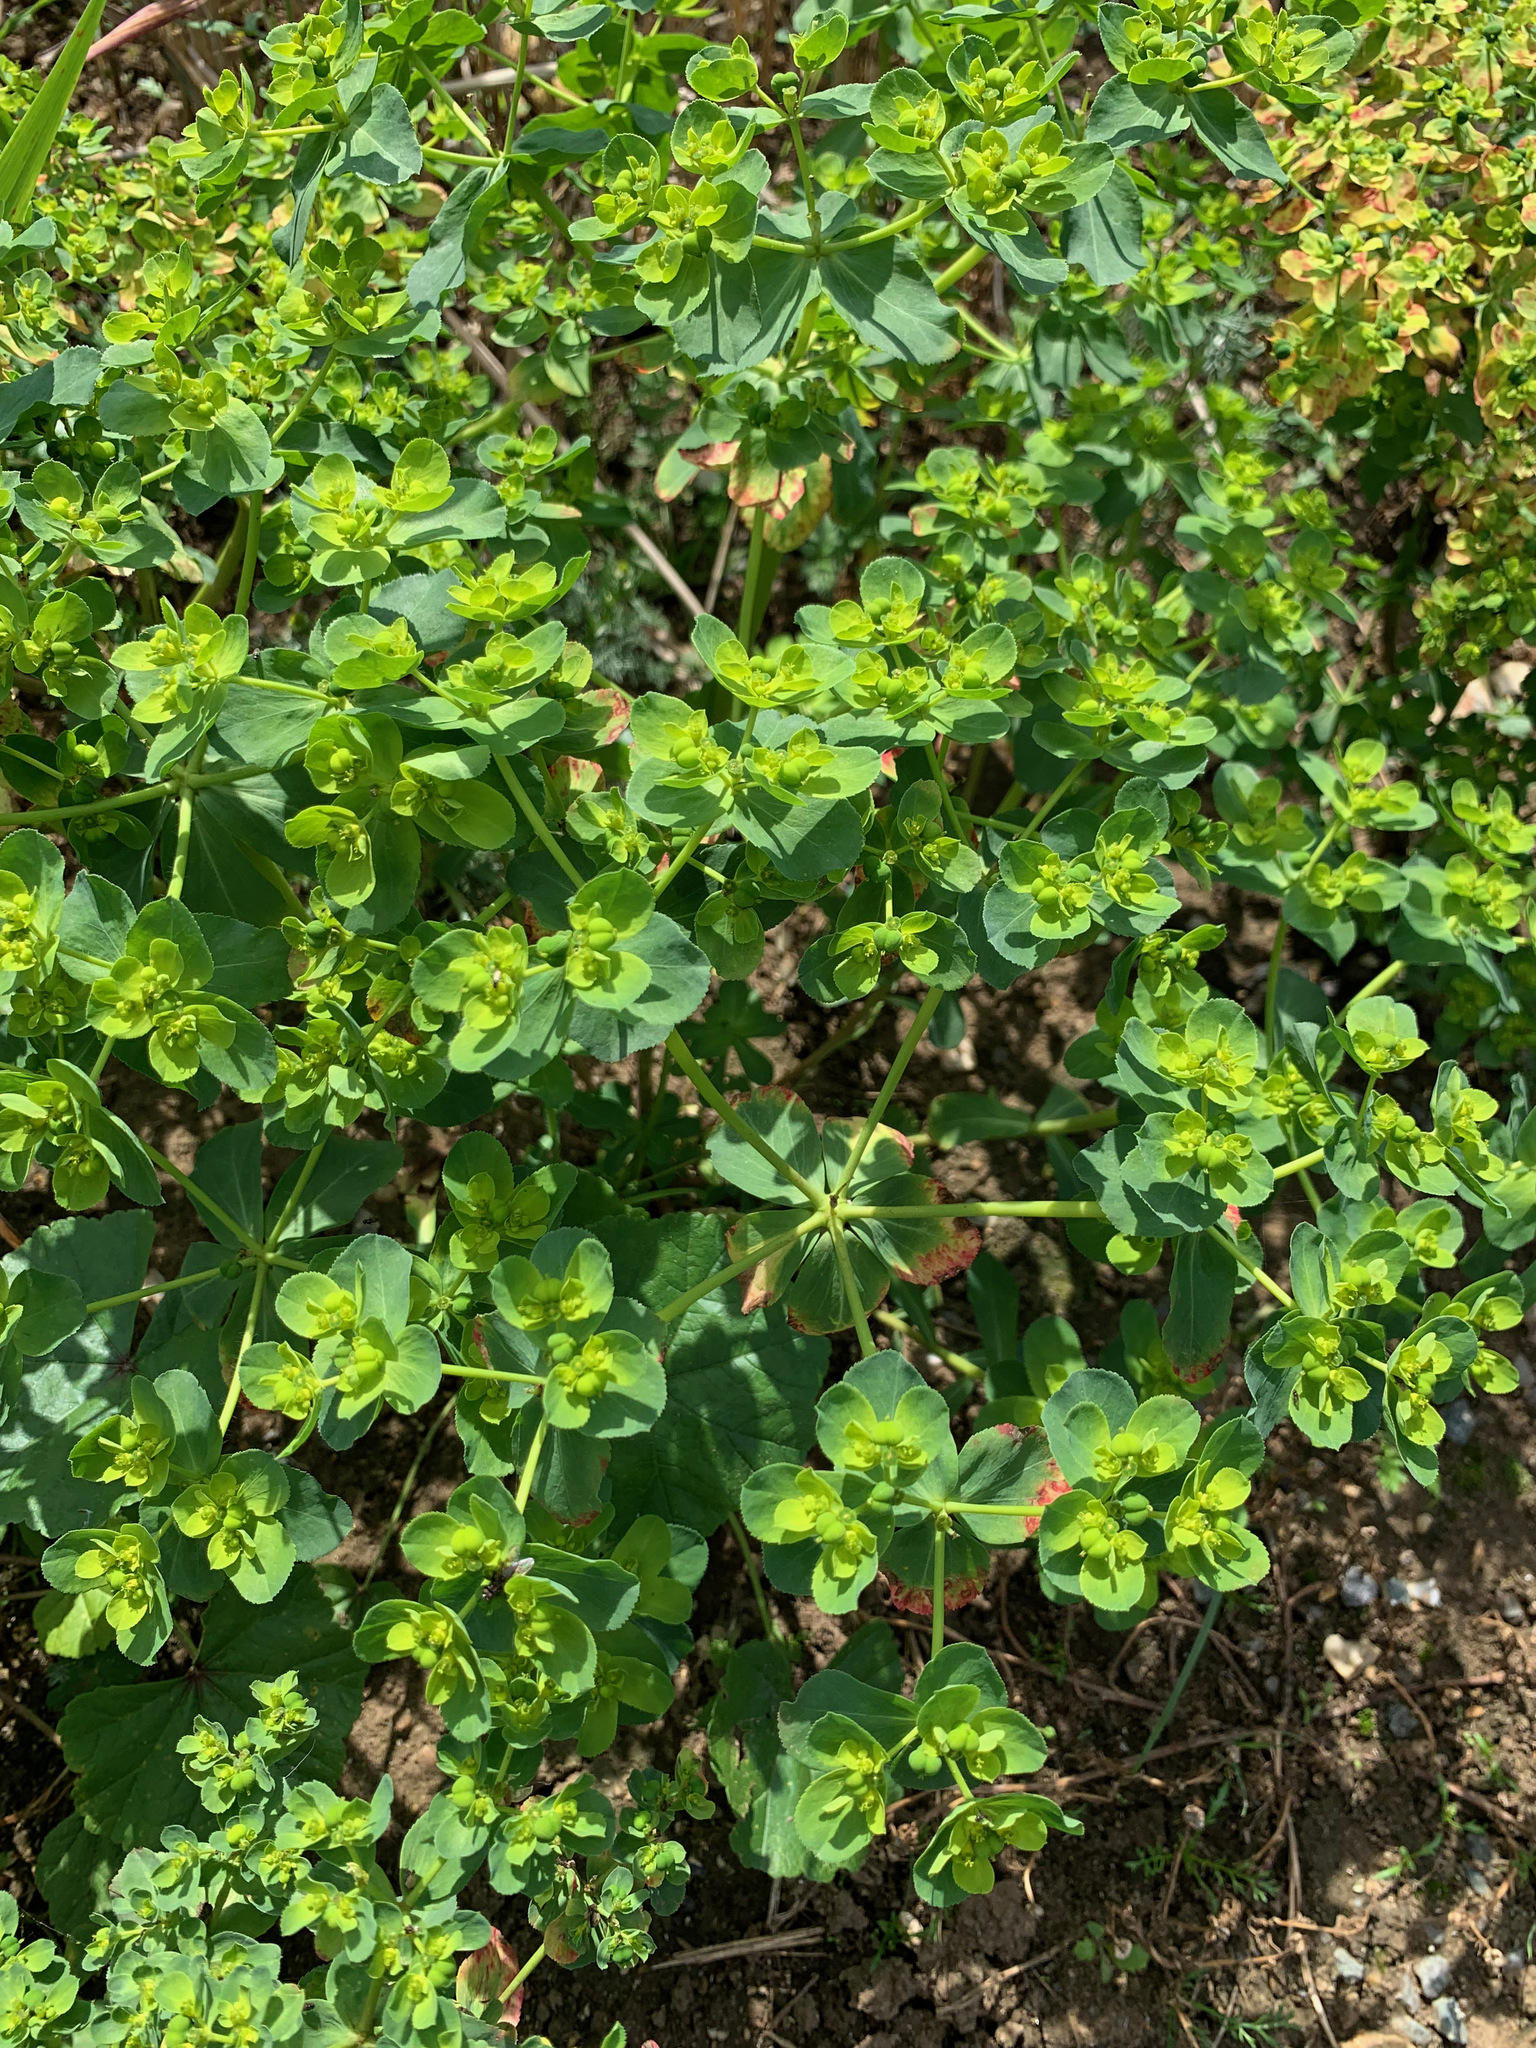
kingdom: Plantae
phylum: Tracheophyta
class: Magnoliopsida
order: Malpighiales
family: Euphorbiaceae
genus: Euphorbia
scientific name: Euphorbia helioscopia
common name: Sun spurge
